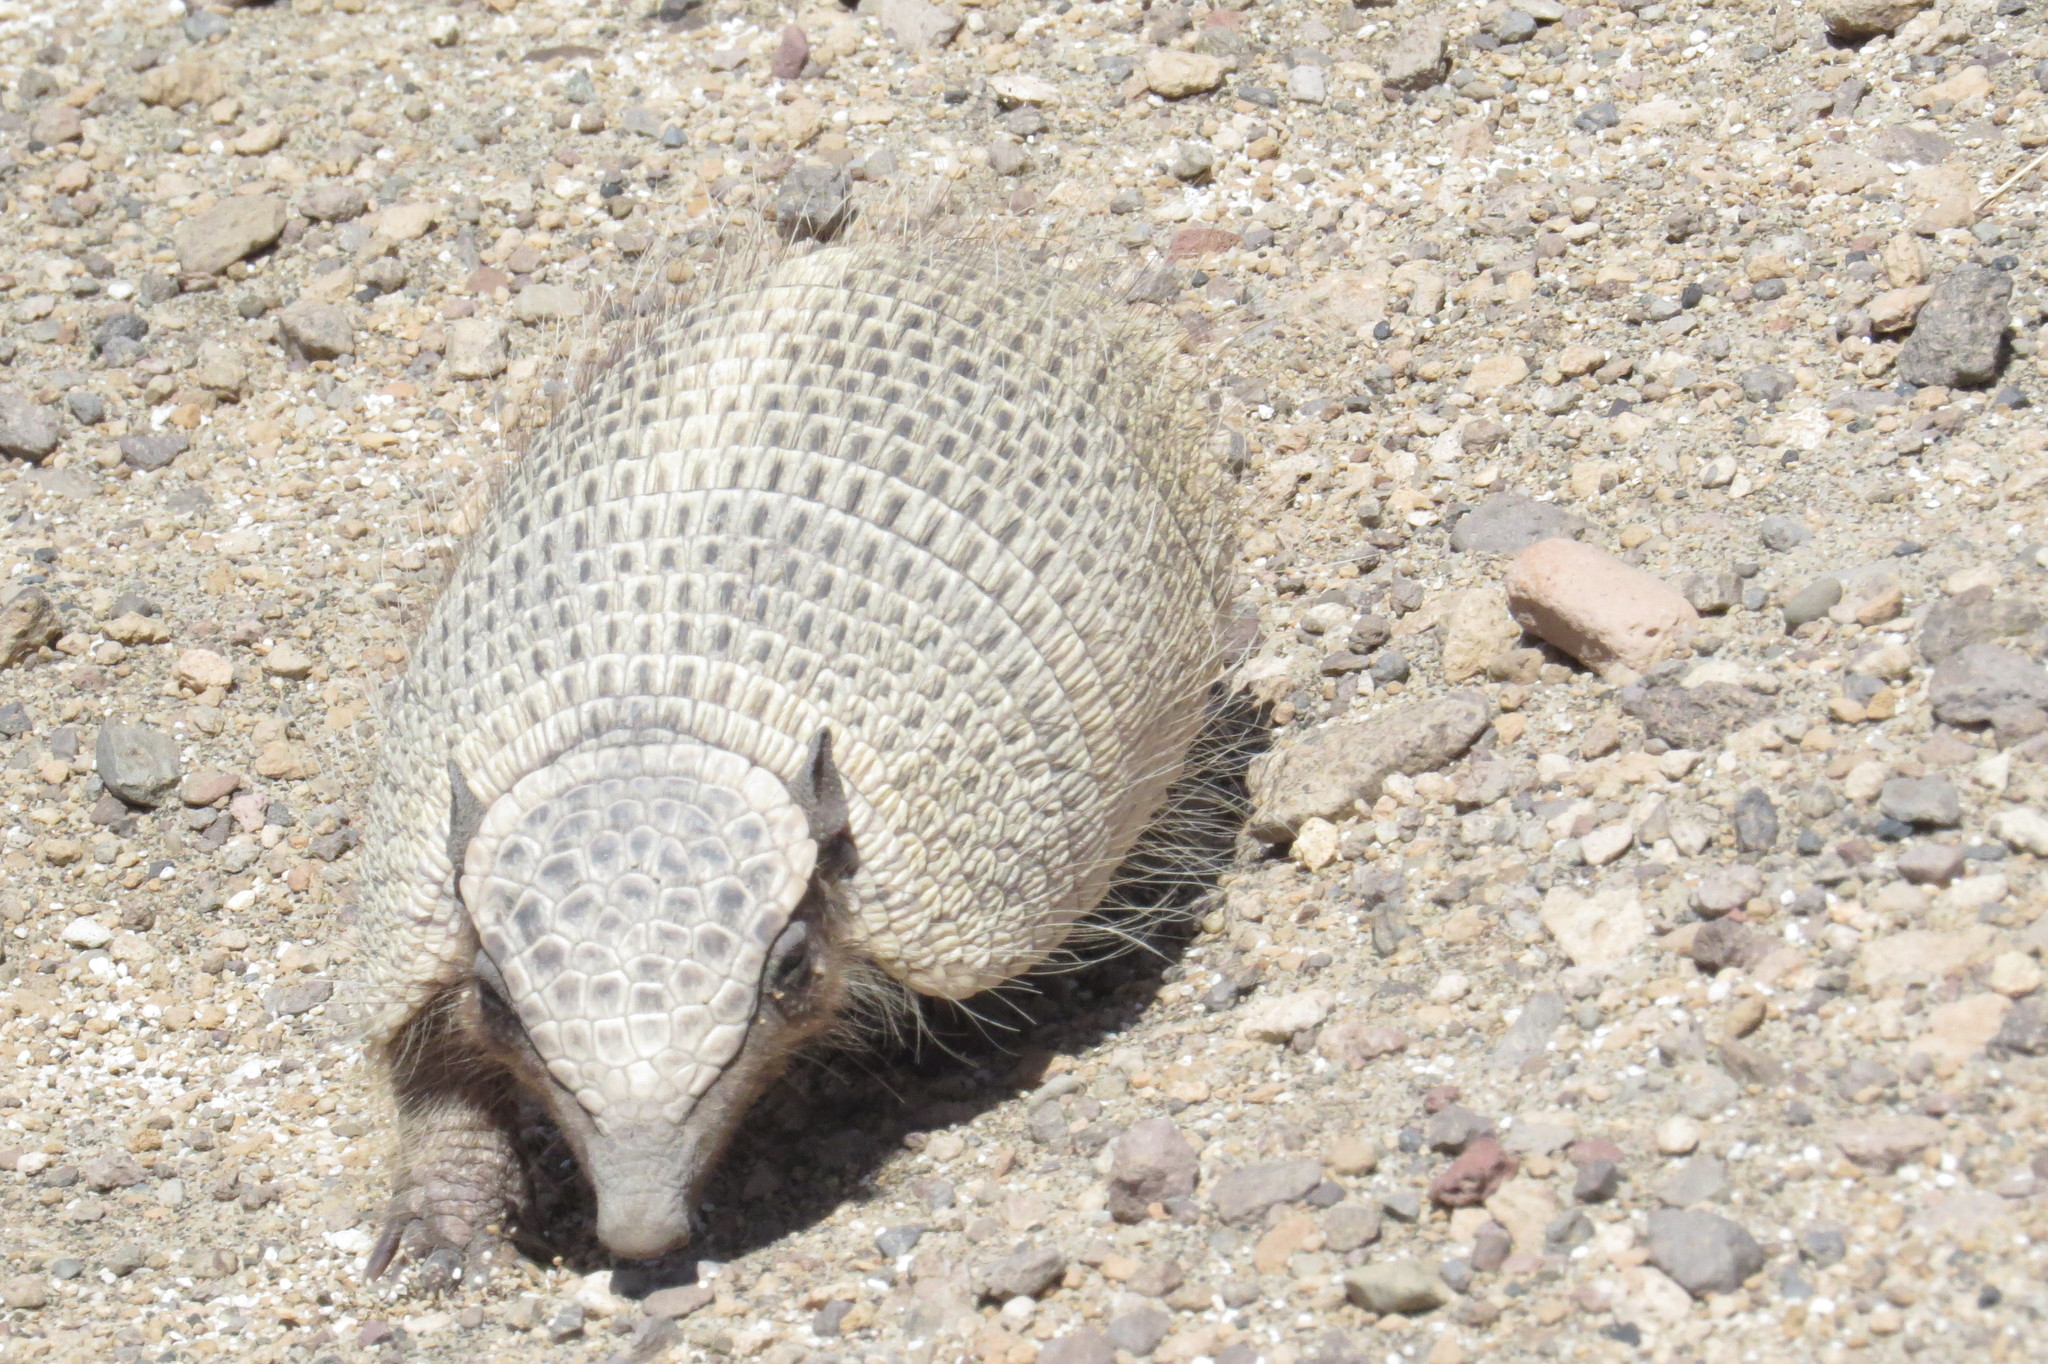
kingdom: Animalia
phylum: Chordata
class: Mammalia
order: Cingulata
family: Dasypodidae
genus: Zaedyus
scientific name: Zaedyus pichiy
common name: Pichi
